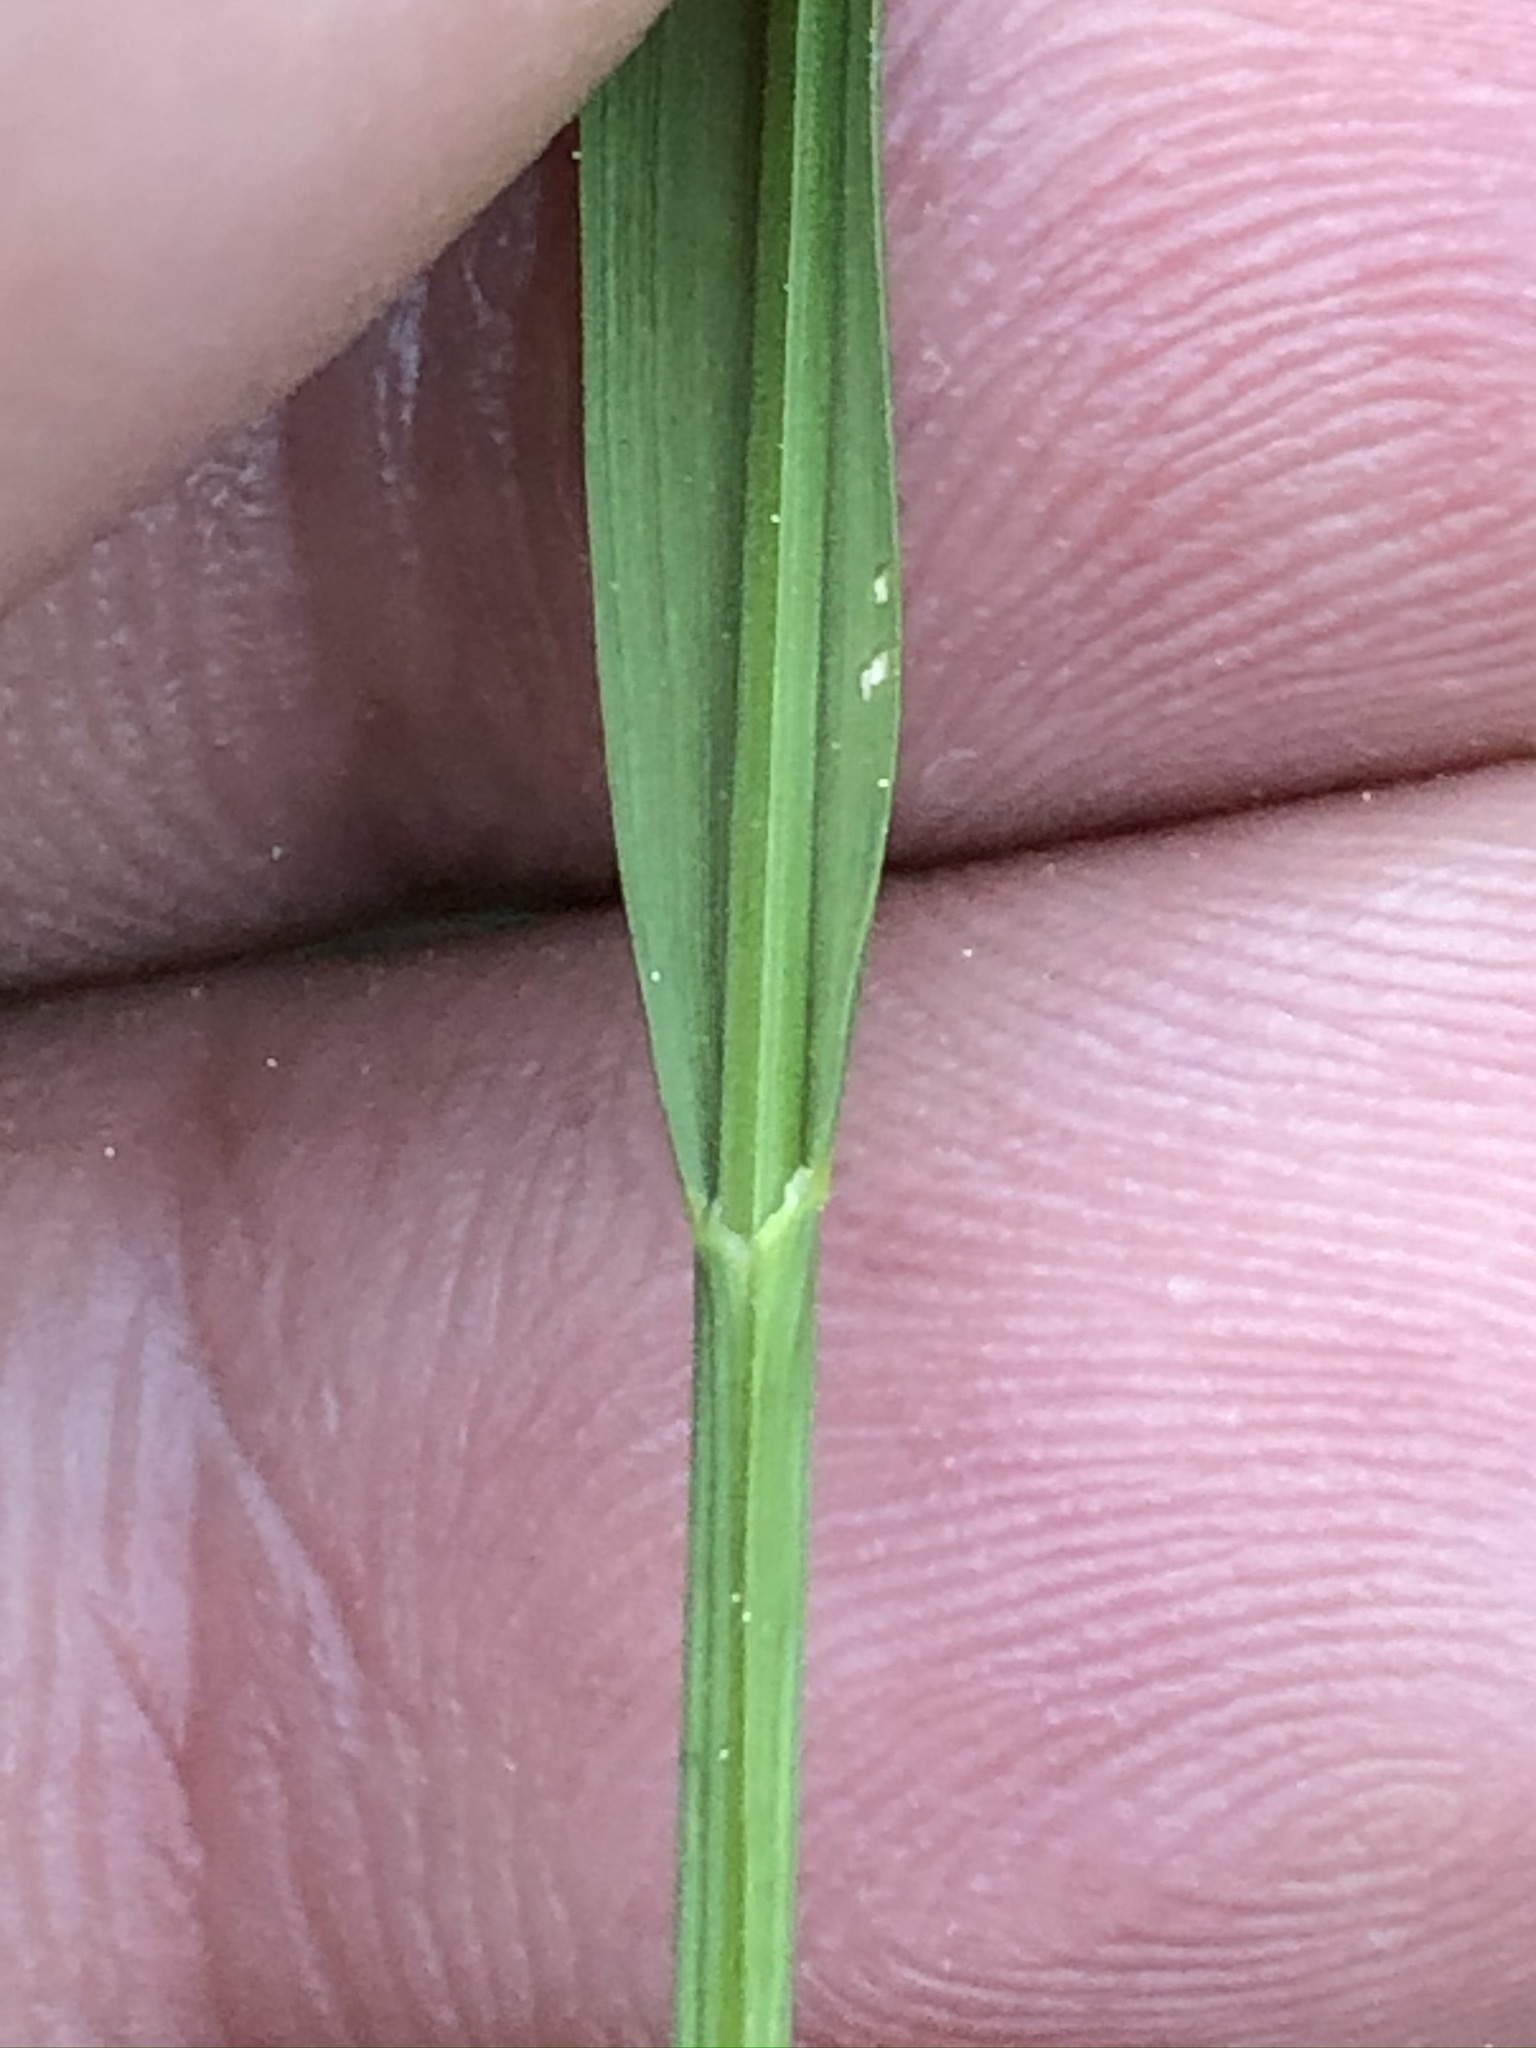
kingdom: Plantae
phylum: Tracheophyta
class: Liliopsida
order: Poales
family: Poaceae
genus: Melica
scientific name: Melica nutans
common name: Mountain melick
